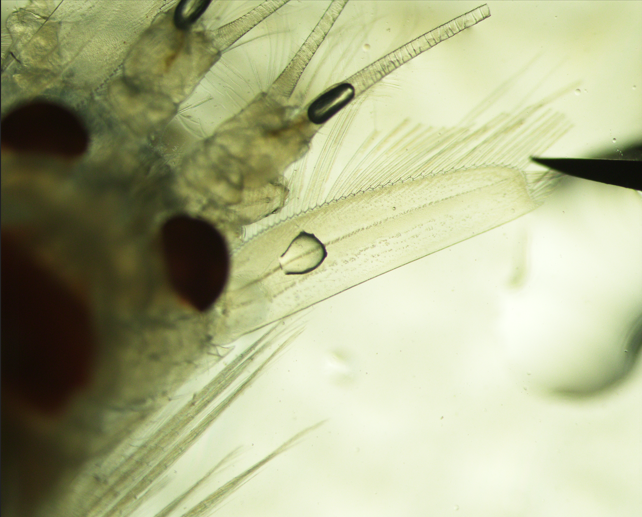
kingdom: Animalia
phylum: Arthropoda
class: Malacostraca
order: Mysida
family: Mysidae
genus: Boreomysis
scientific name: Boreomysis arctica
